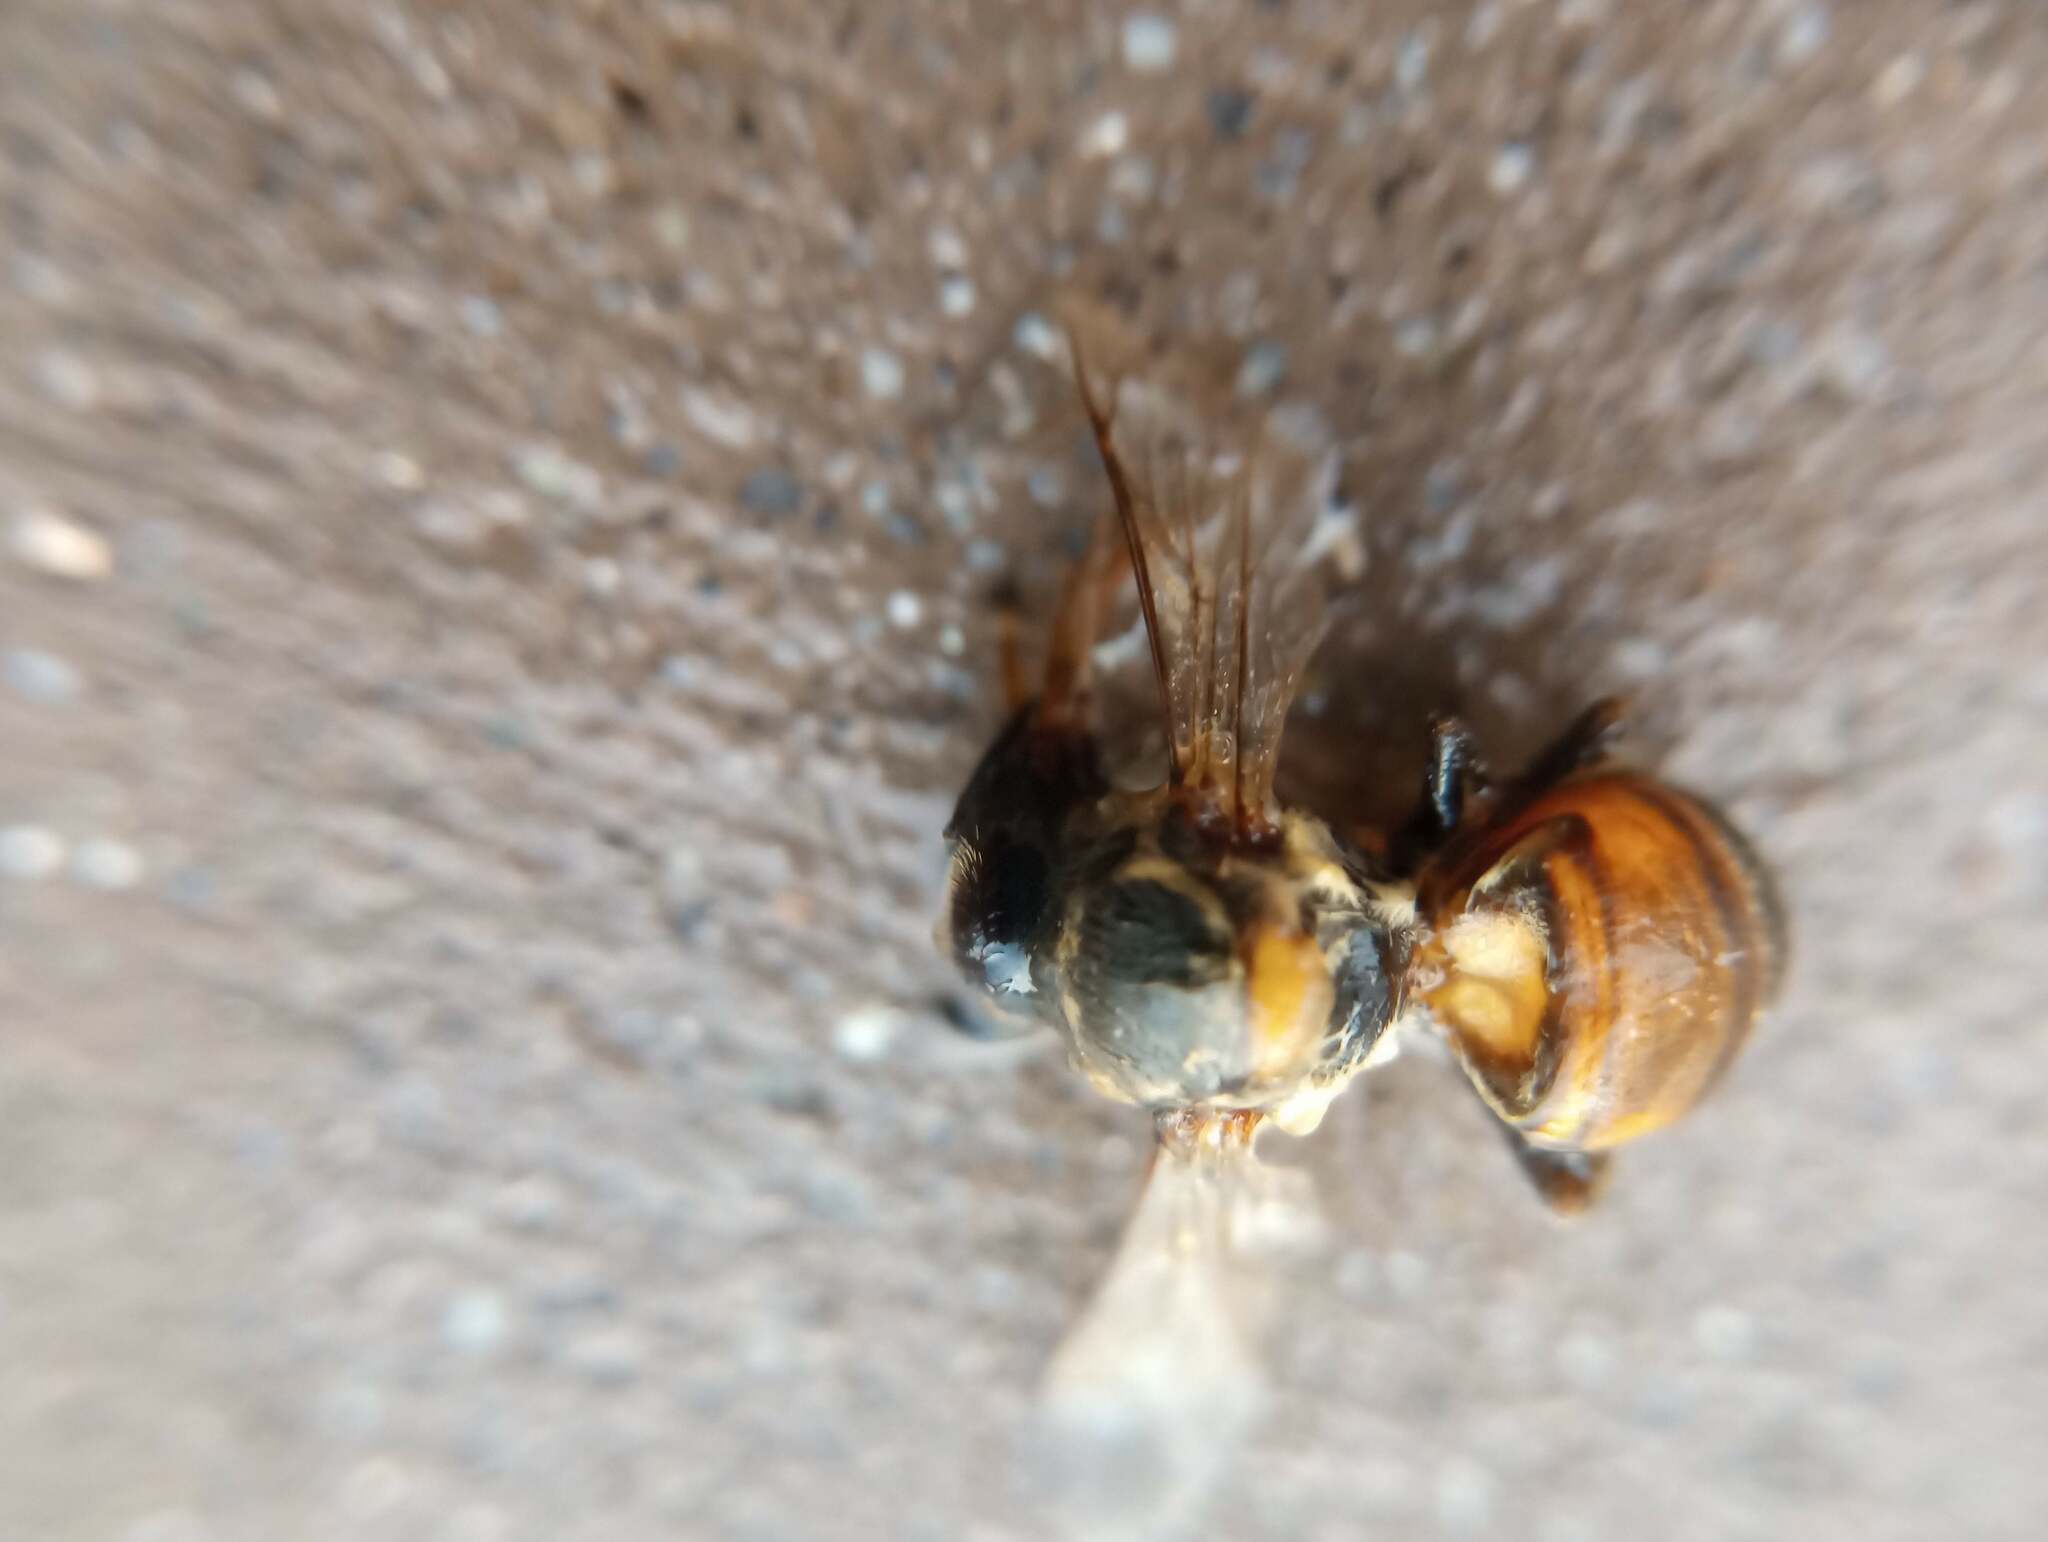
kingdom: Animalia
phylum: Arthropoda
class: Insecta
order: Hymenoptera
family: Apidae
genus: Apis
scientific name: Apis mellifera
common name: Honey bee
